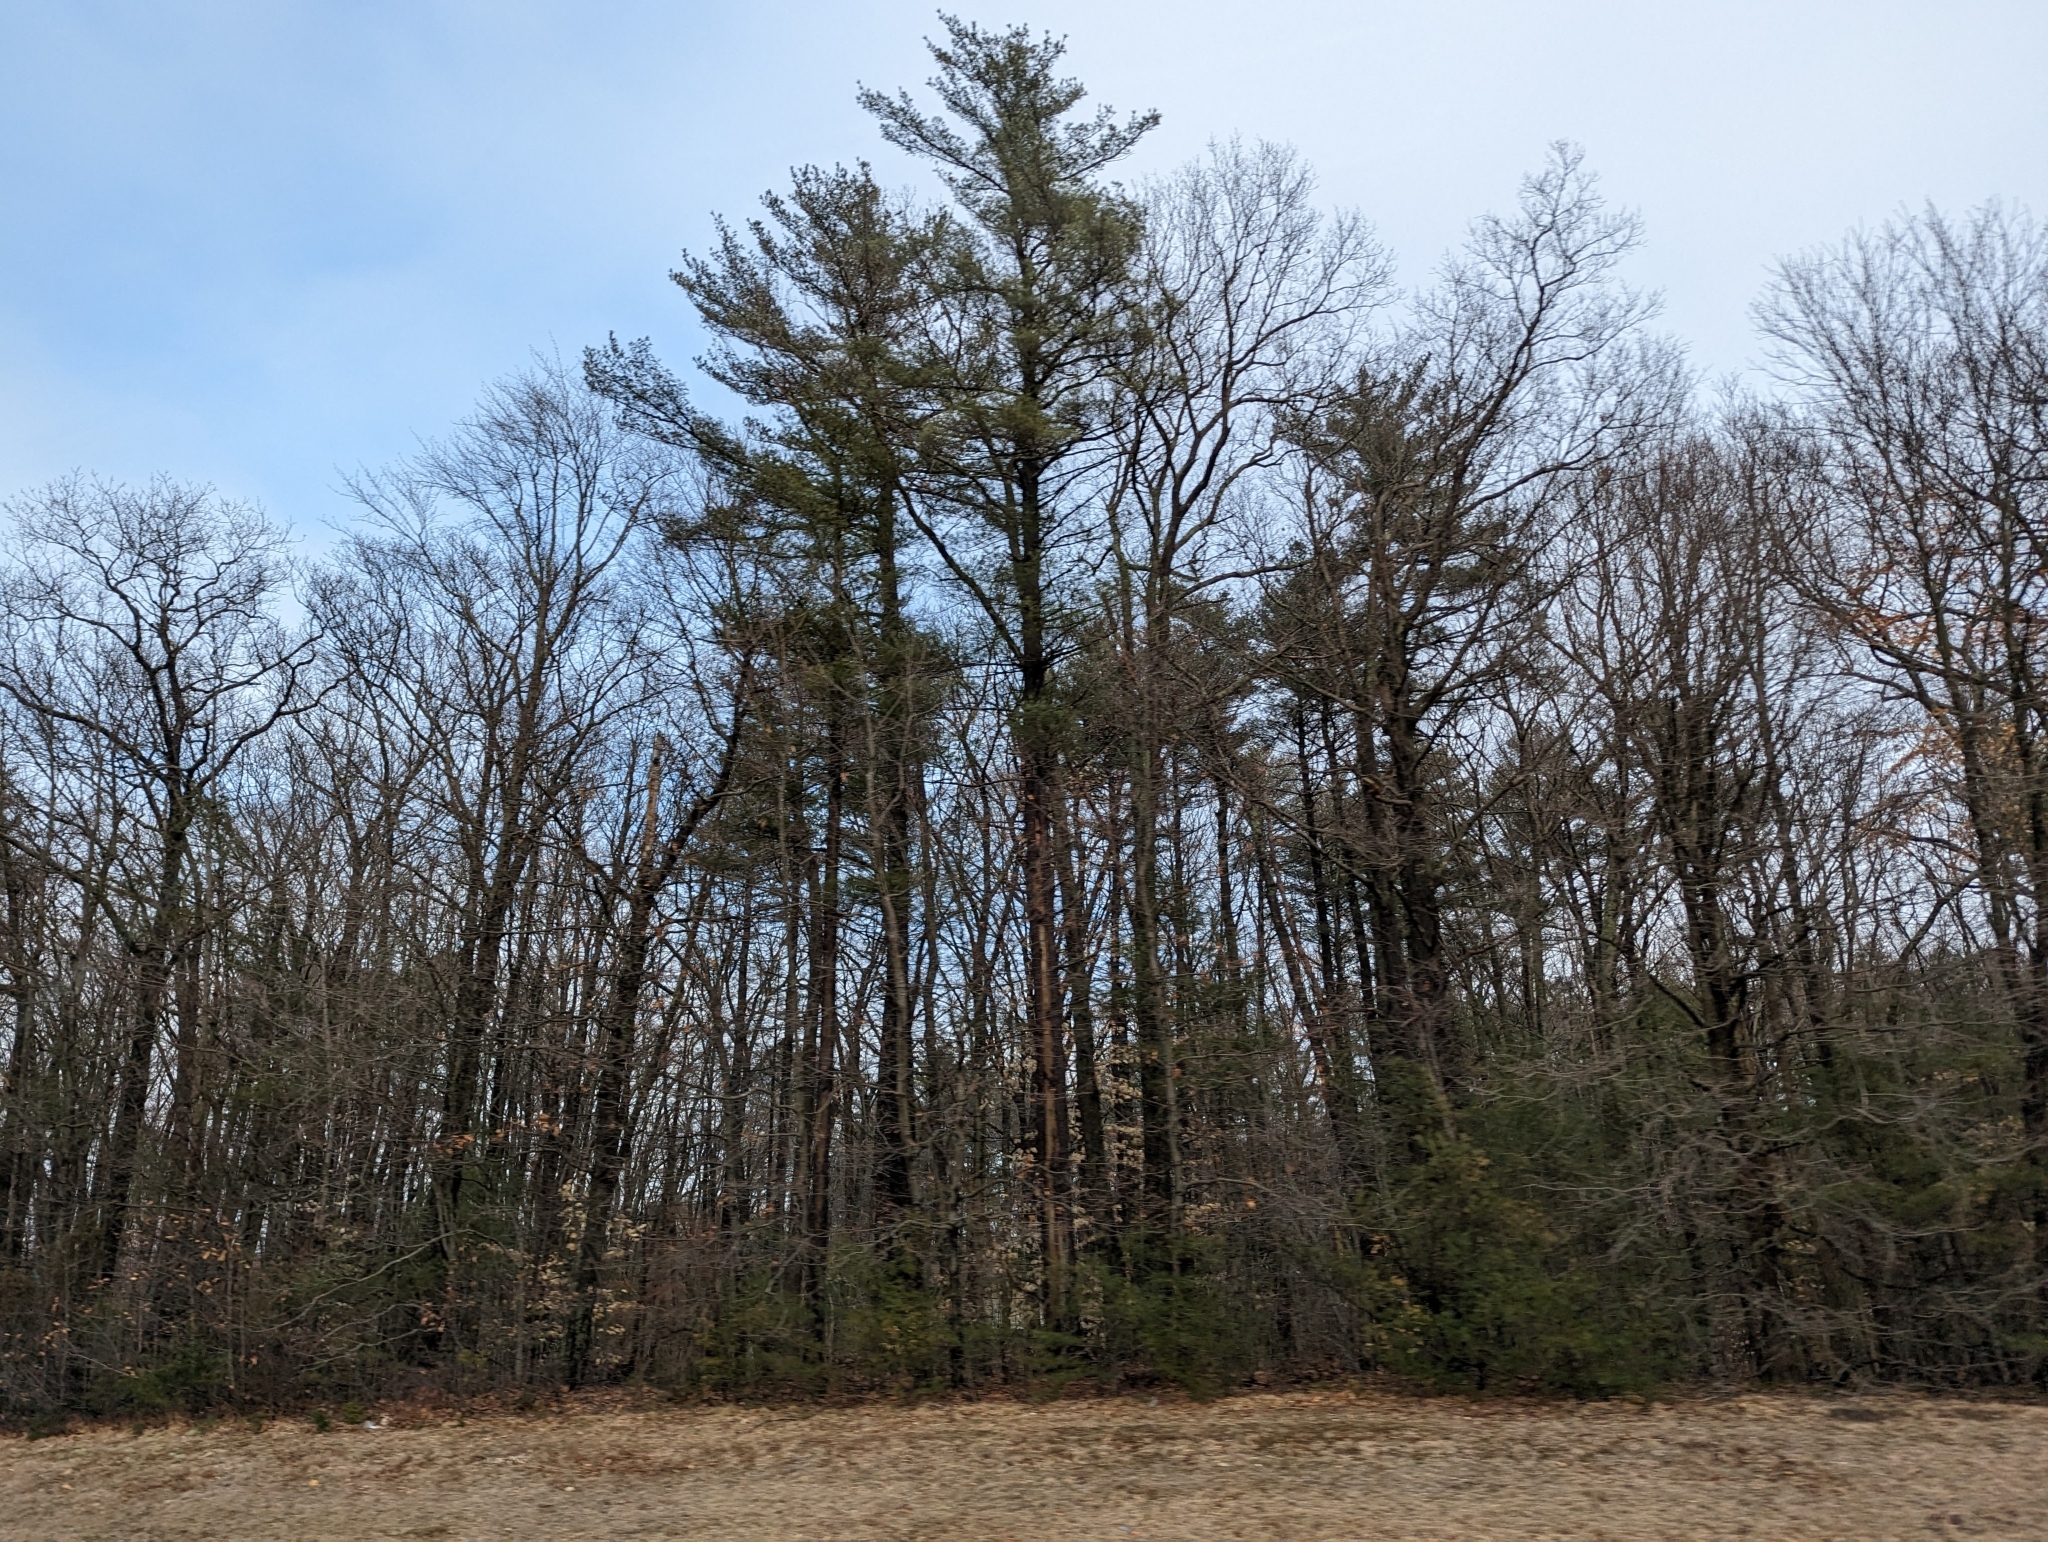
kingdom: Plantae
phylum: Tracheophyta
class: Pinopsida
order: Pinales
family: Pinaceae
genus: Pinus
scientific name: Pinus strobus
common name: Weymouth pine
